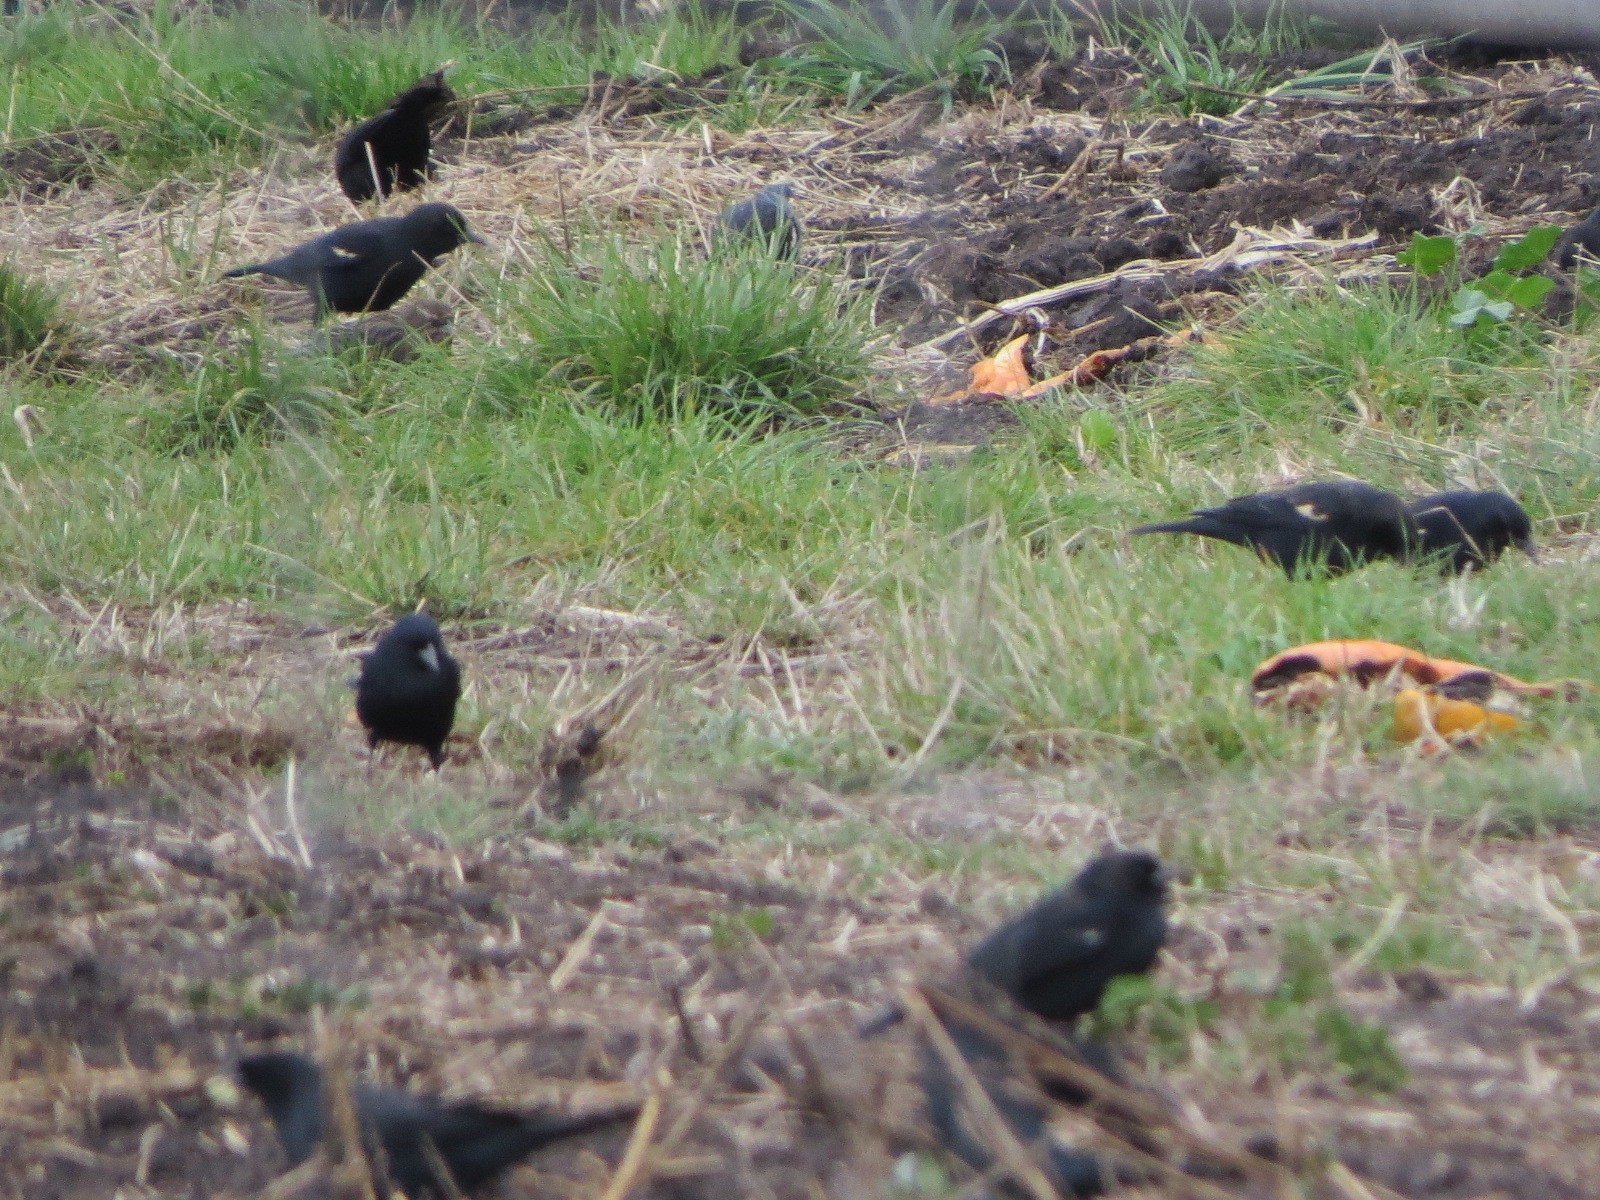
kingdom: Animalia
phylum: Chordata
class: Aves
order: Passeriformes
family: Icteridae
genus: Agelaius
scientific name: Agelaius tricolor
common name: Tricolored blackbird
